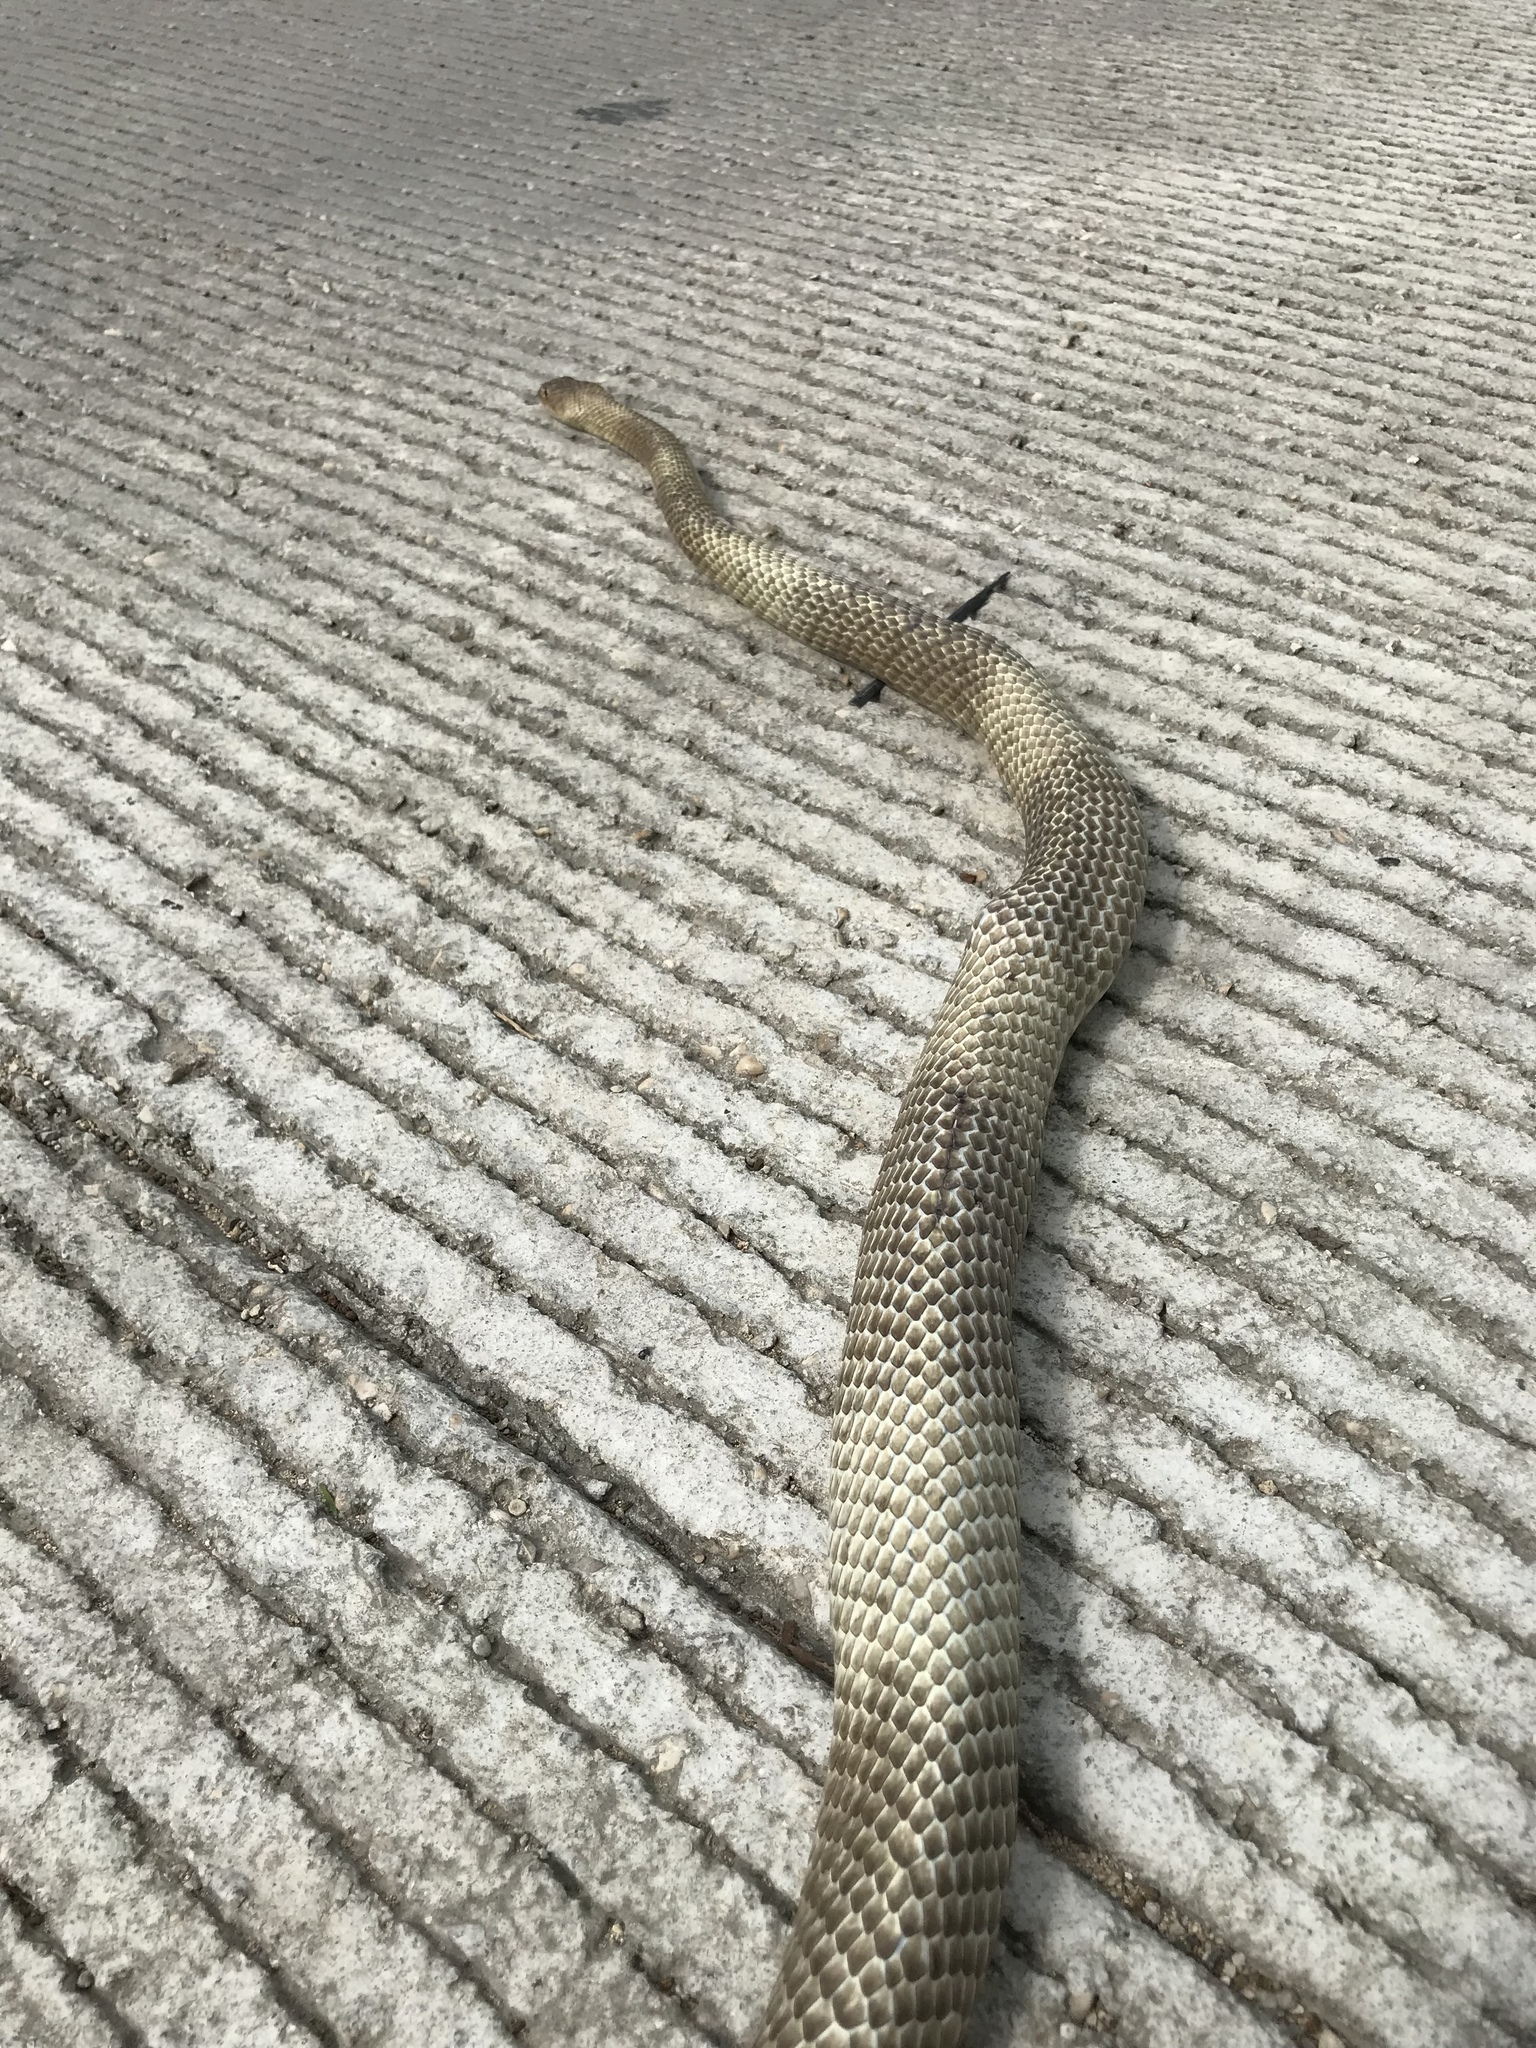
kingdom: Animalia
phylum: Chordata
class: Squamata
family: Colubridae
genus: Masticophis
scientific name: Masticophis flagellum
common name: Coachwhip
